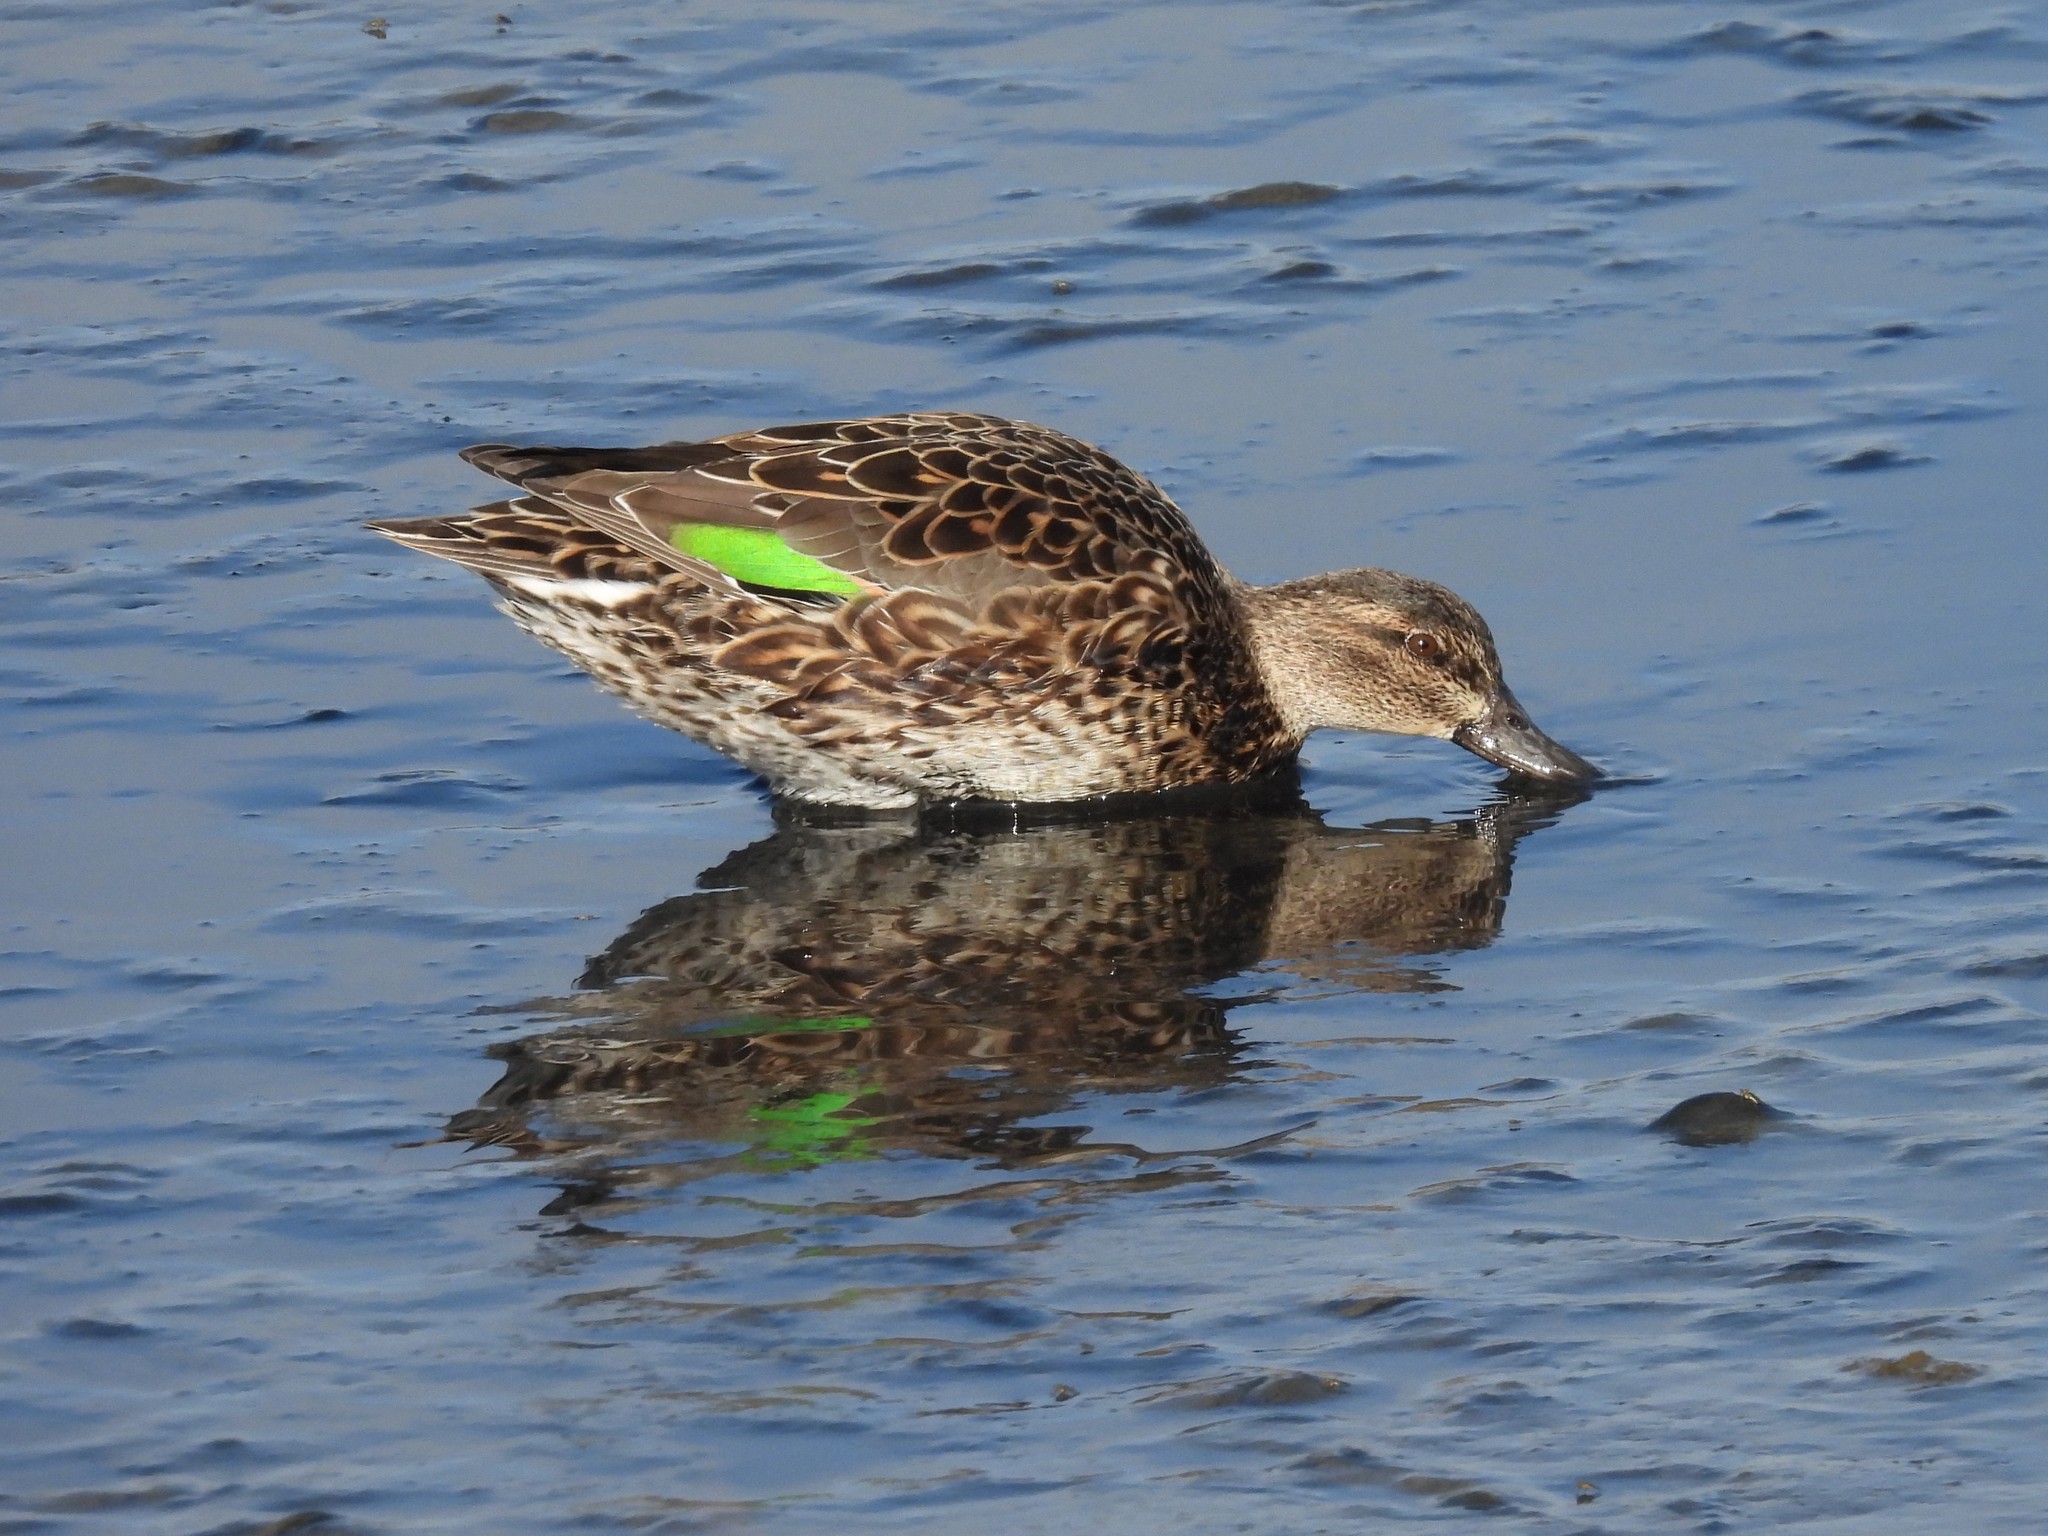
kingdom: Animalia
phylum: Chordata
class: Aves
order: Anseriformes
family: Anatidae
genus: Anas
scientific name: Anas crecca
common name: Eurasian teal
